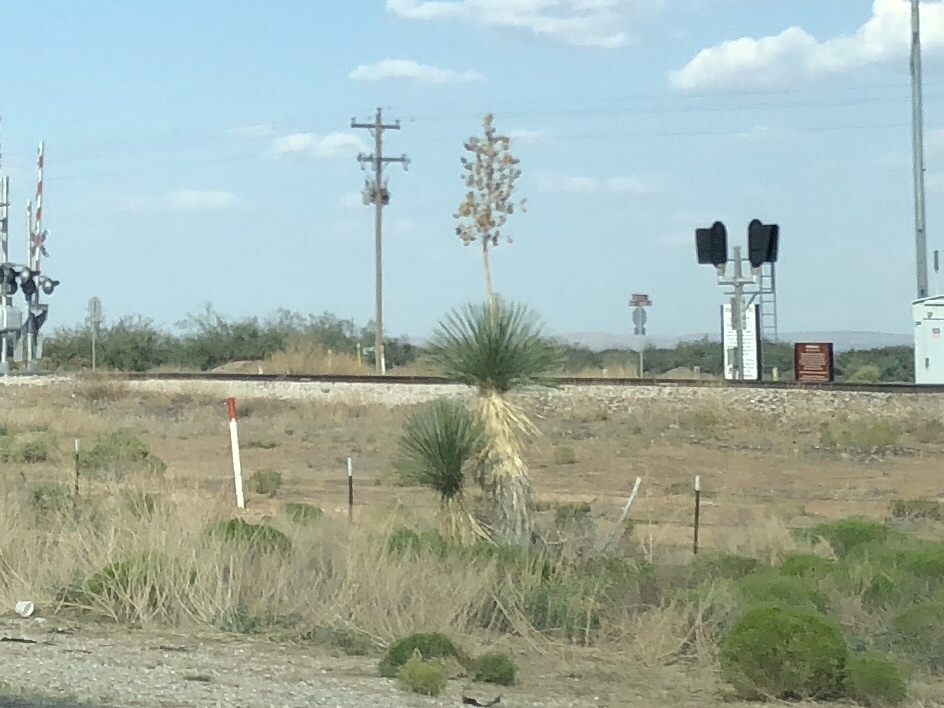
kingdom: Plantae
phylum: Tracheophyta
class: Liliopsida
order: Asparagales
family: Asparagaceae
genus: Yucca
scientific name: Yucca elata
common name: Palmella
